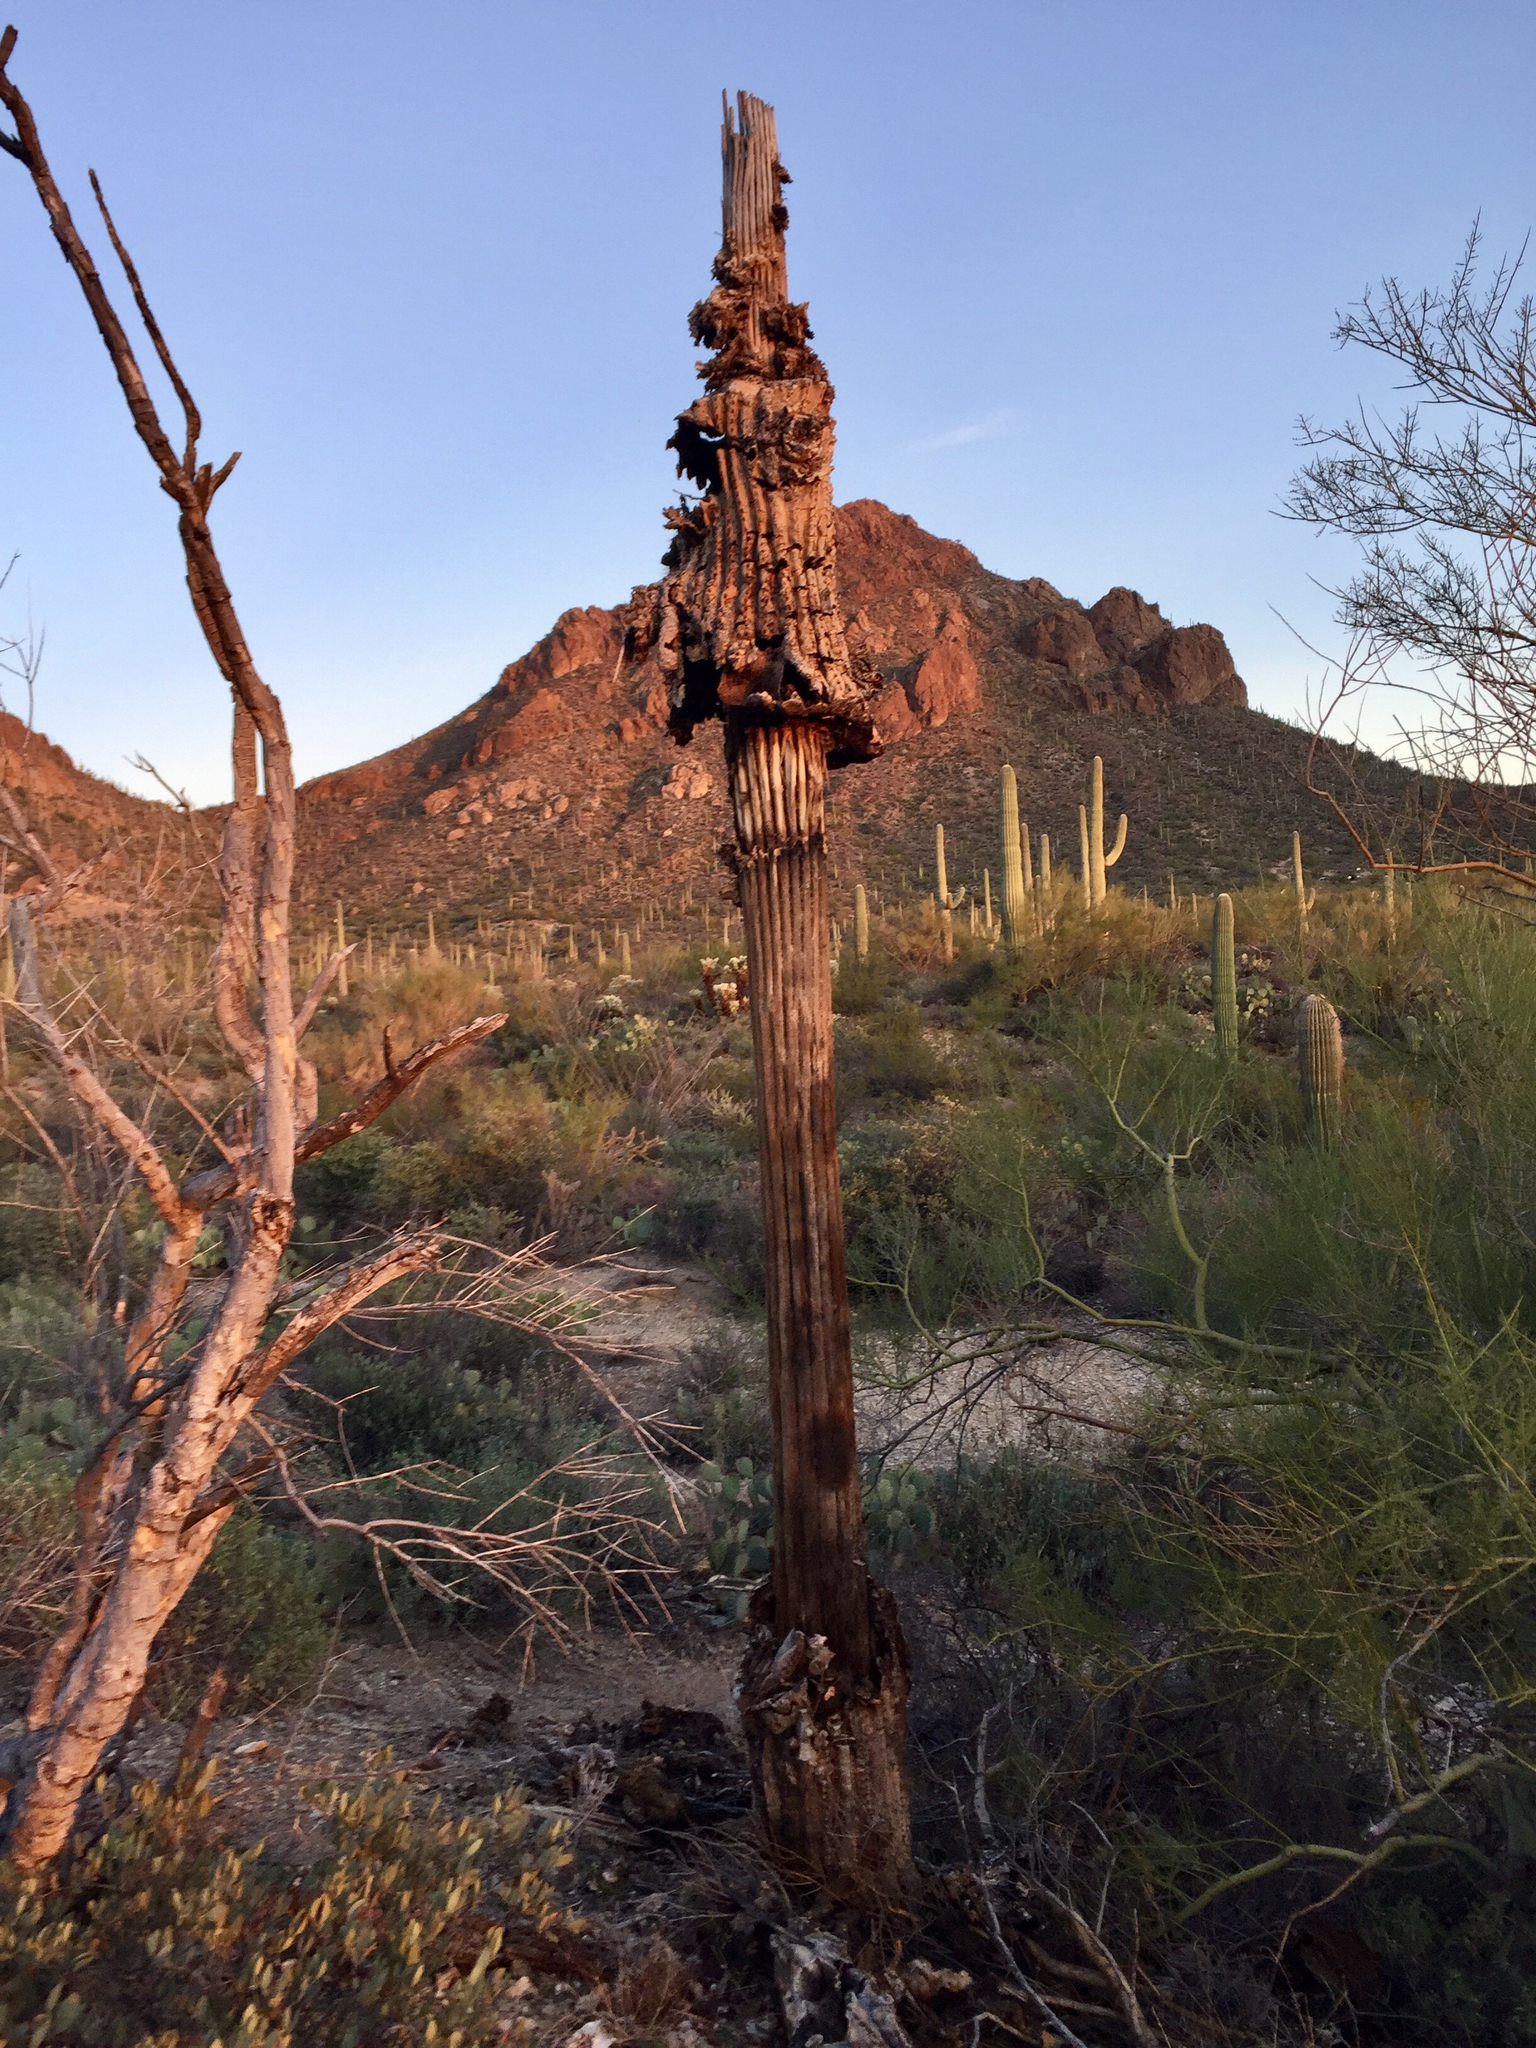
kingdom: Plantae
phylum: Tracheophyta
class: Magnoliopsida
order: Caryophyllales
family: Cactaceae
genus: Carnegiea
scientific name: Carnegiea gigantea
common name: Saguaro
